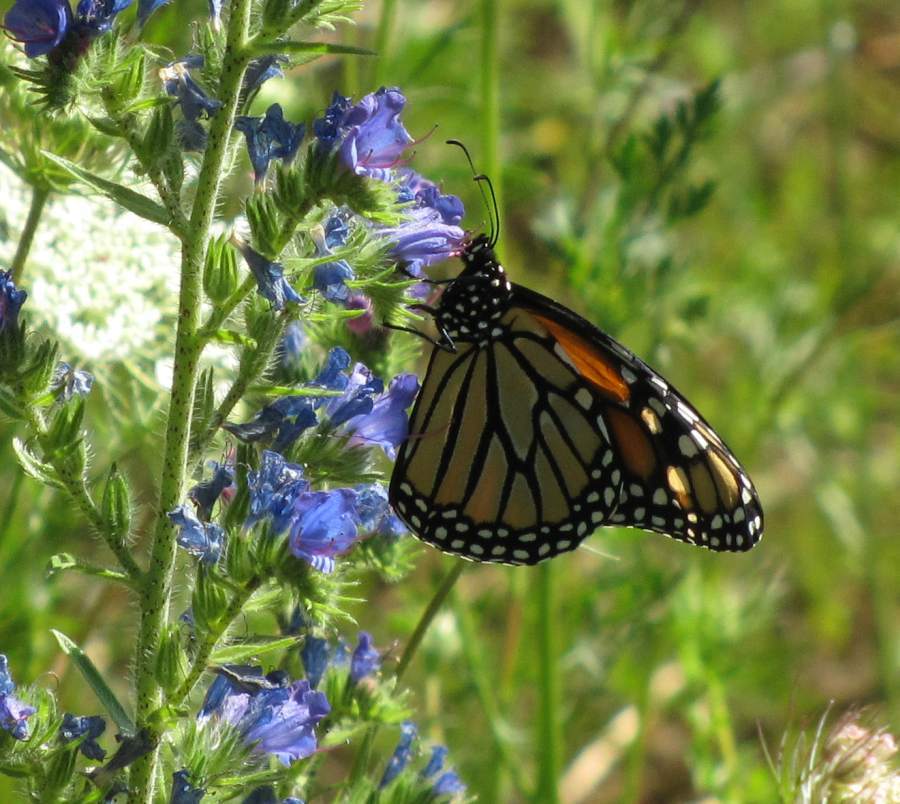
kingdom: Animalia
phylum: Arthropoda
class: Insecta
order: Lepidoptera
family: Nymphalidae
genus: Danaus
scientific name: Danaus plexippus
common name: Monarch
